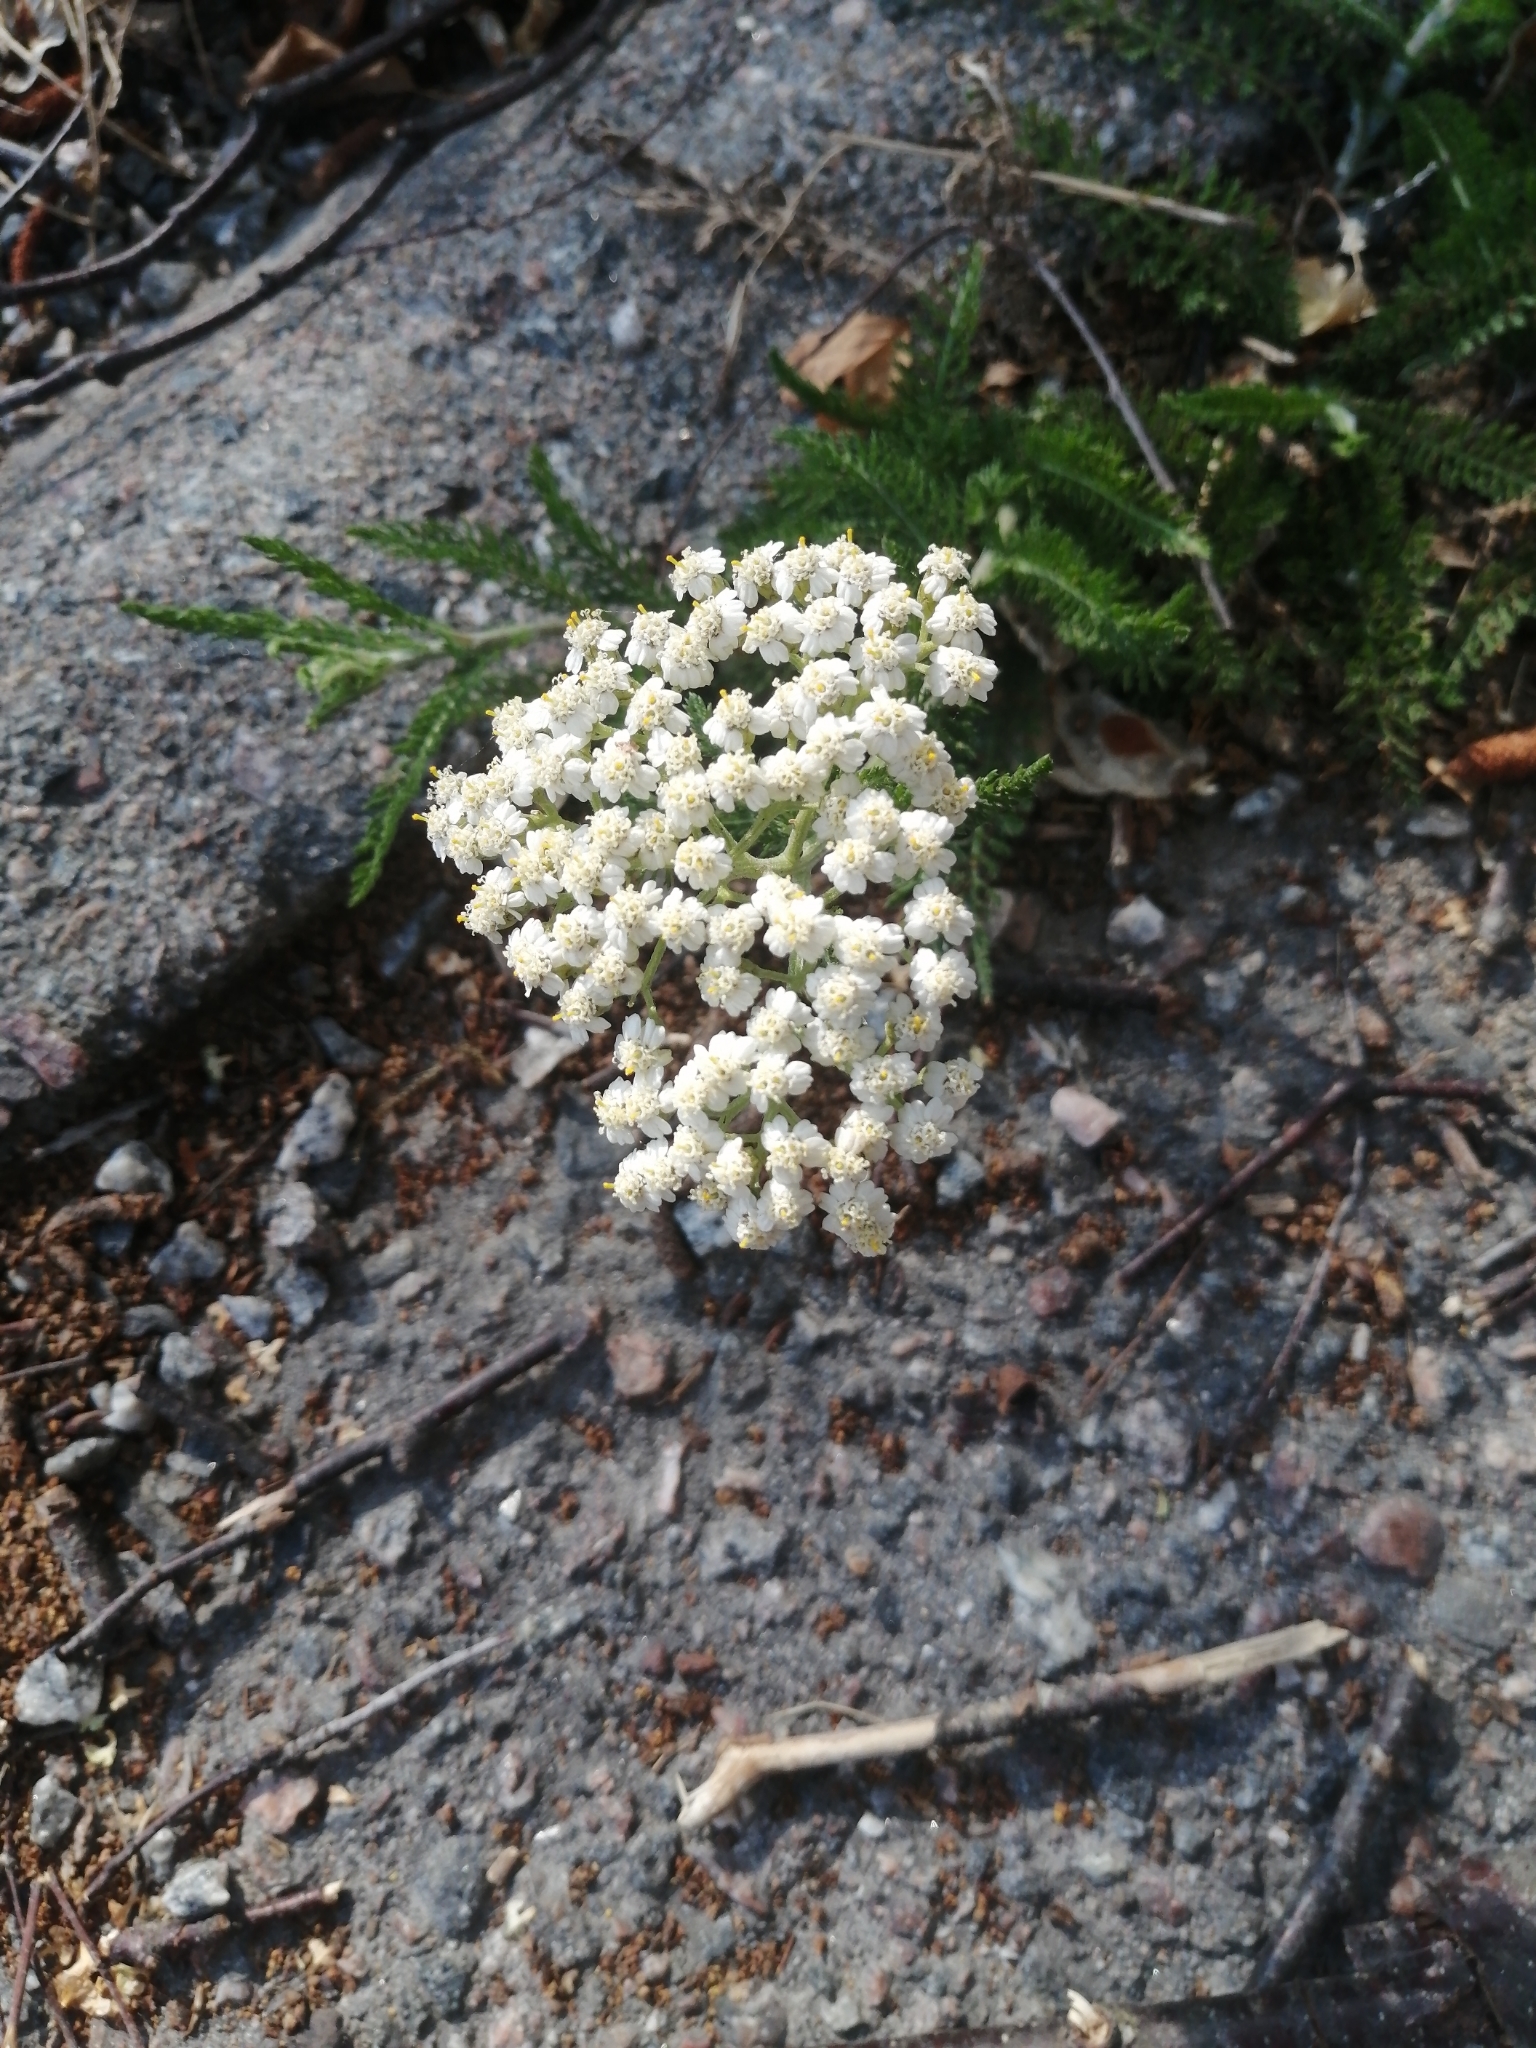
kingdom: Plantae
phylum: Tracheophyta
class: Magnoliopsida
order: Asterales
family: Asteraceae
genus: Achillea
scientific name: Achillea millefolium
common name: Yarrow
